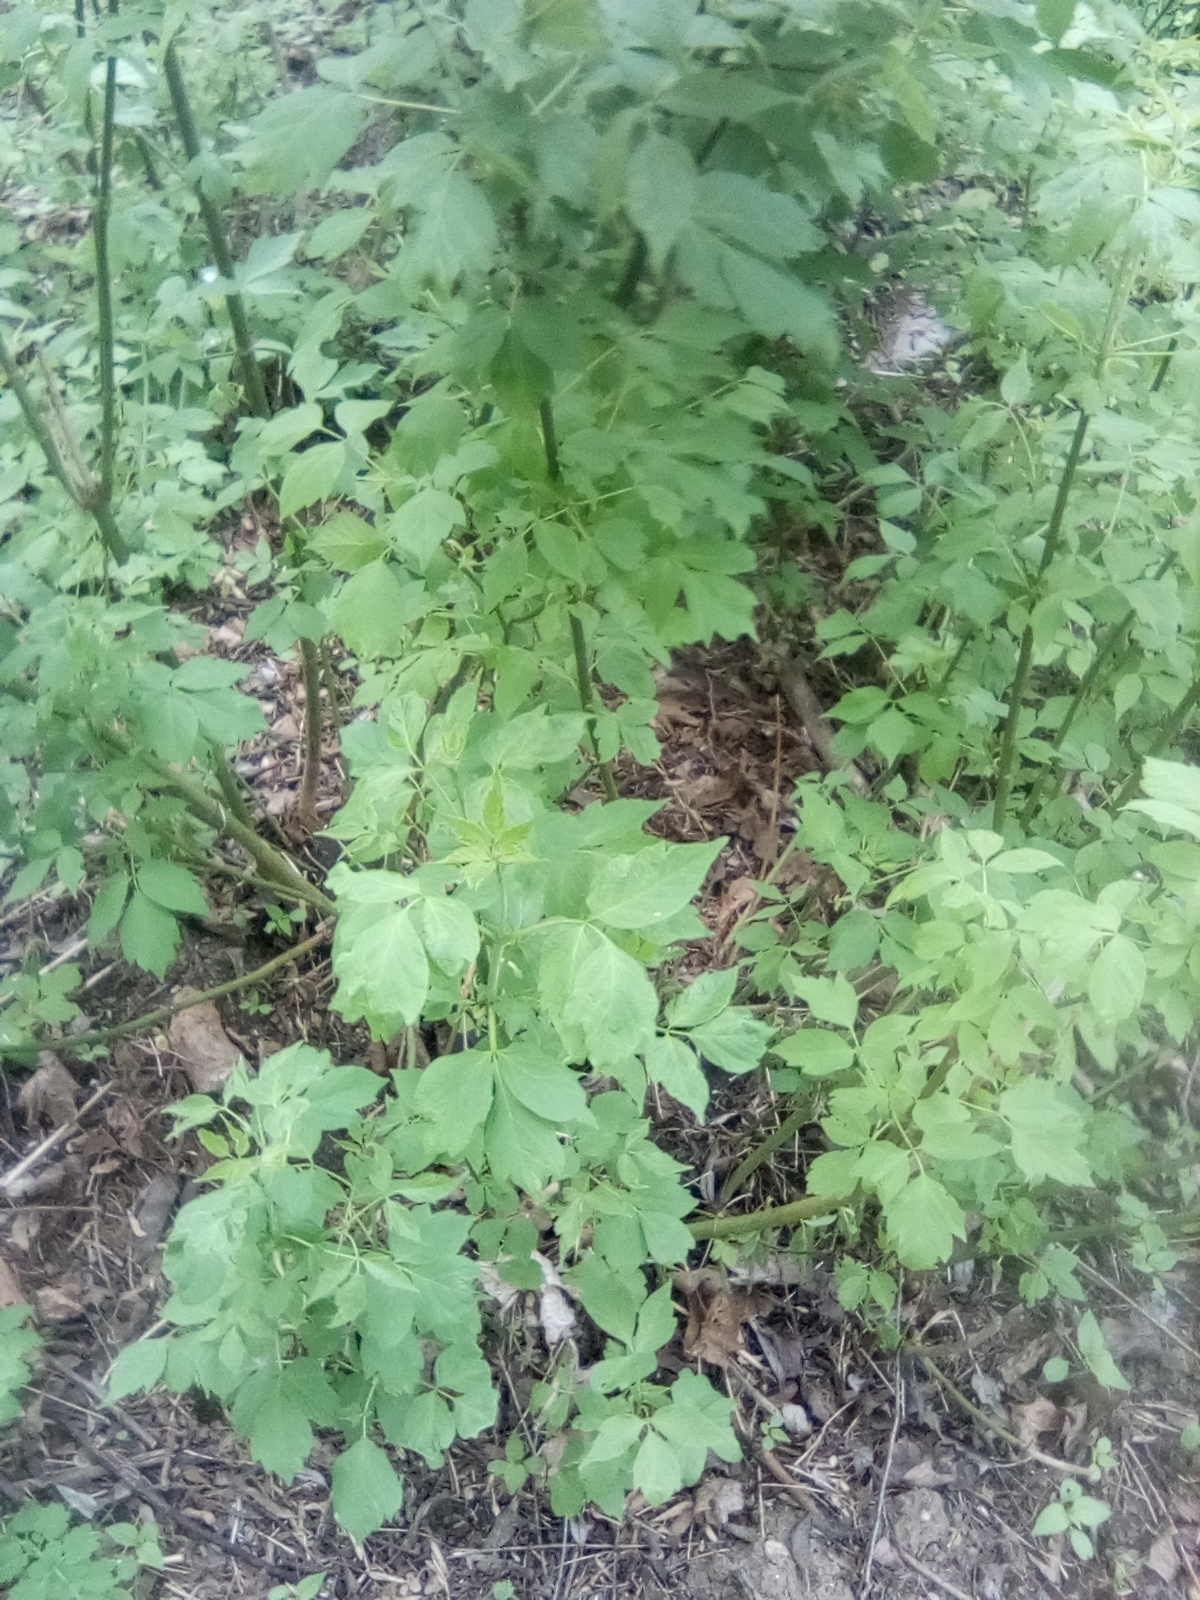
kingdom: Plantae
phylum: Tracheophyta
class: Magnoliopsida
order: Sapindales
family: Sapindaceae
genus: Acer
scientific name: Acer negundo
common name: Ashleaf maple
